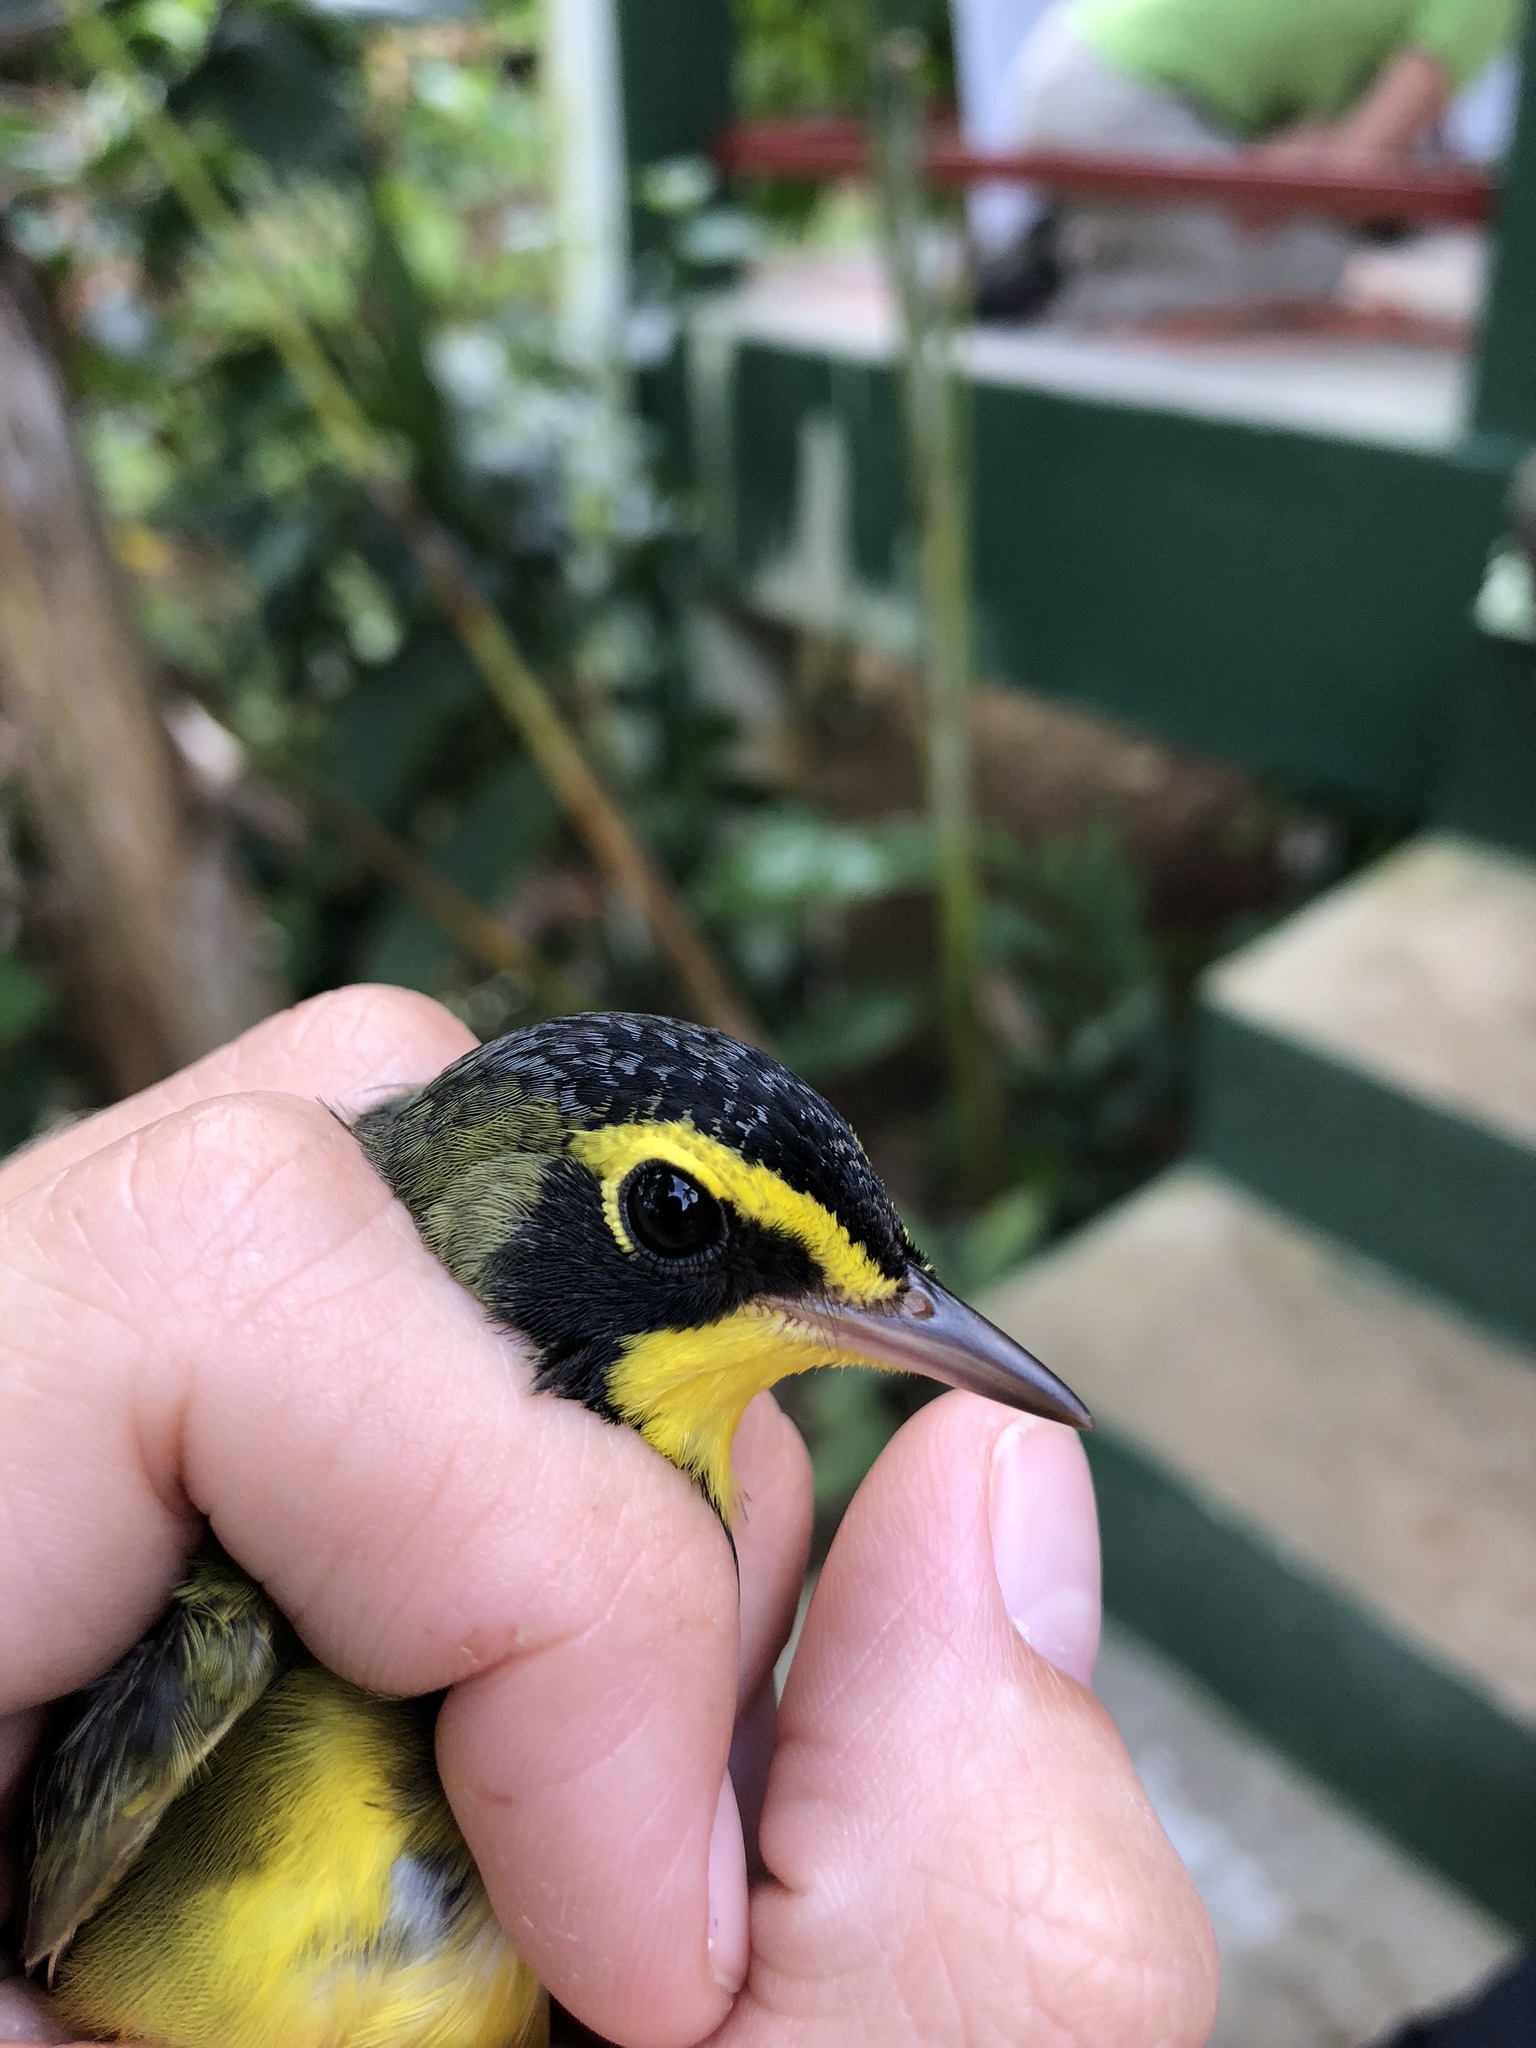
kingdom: Animalia
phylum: Chordata
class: Aves
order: Passeriformes
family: Parulidae
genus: Geothlypis
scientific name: Geothlypis formosa
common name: Kentucky warbler
